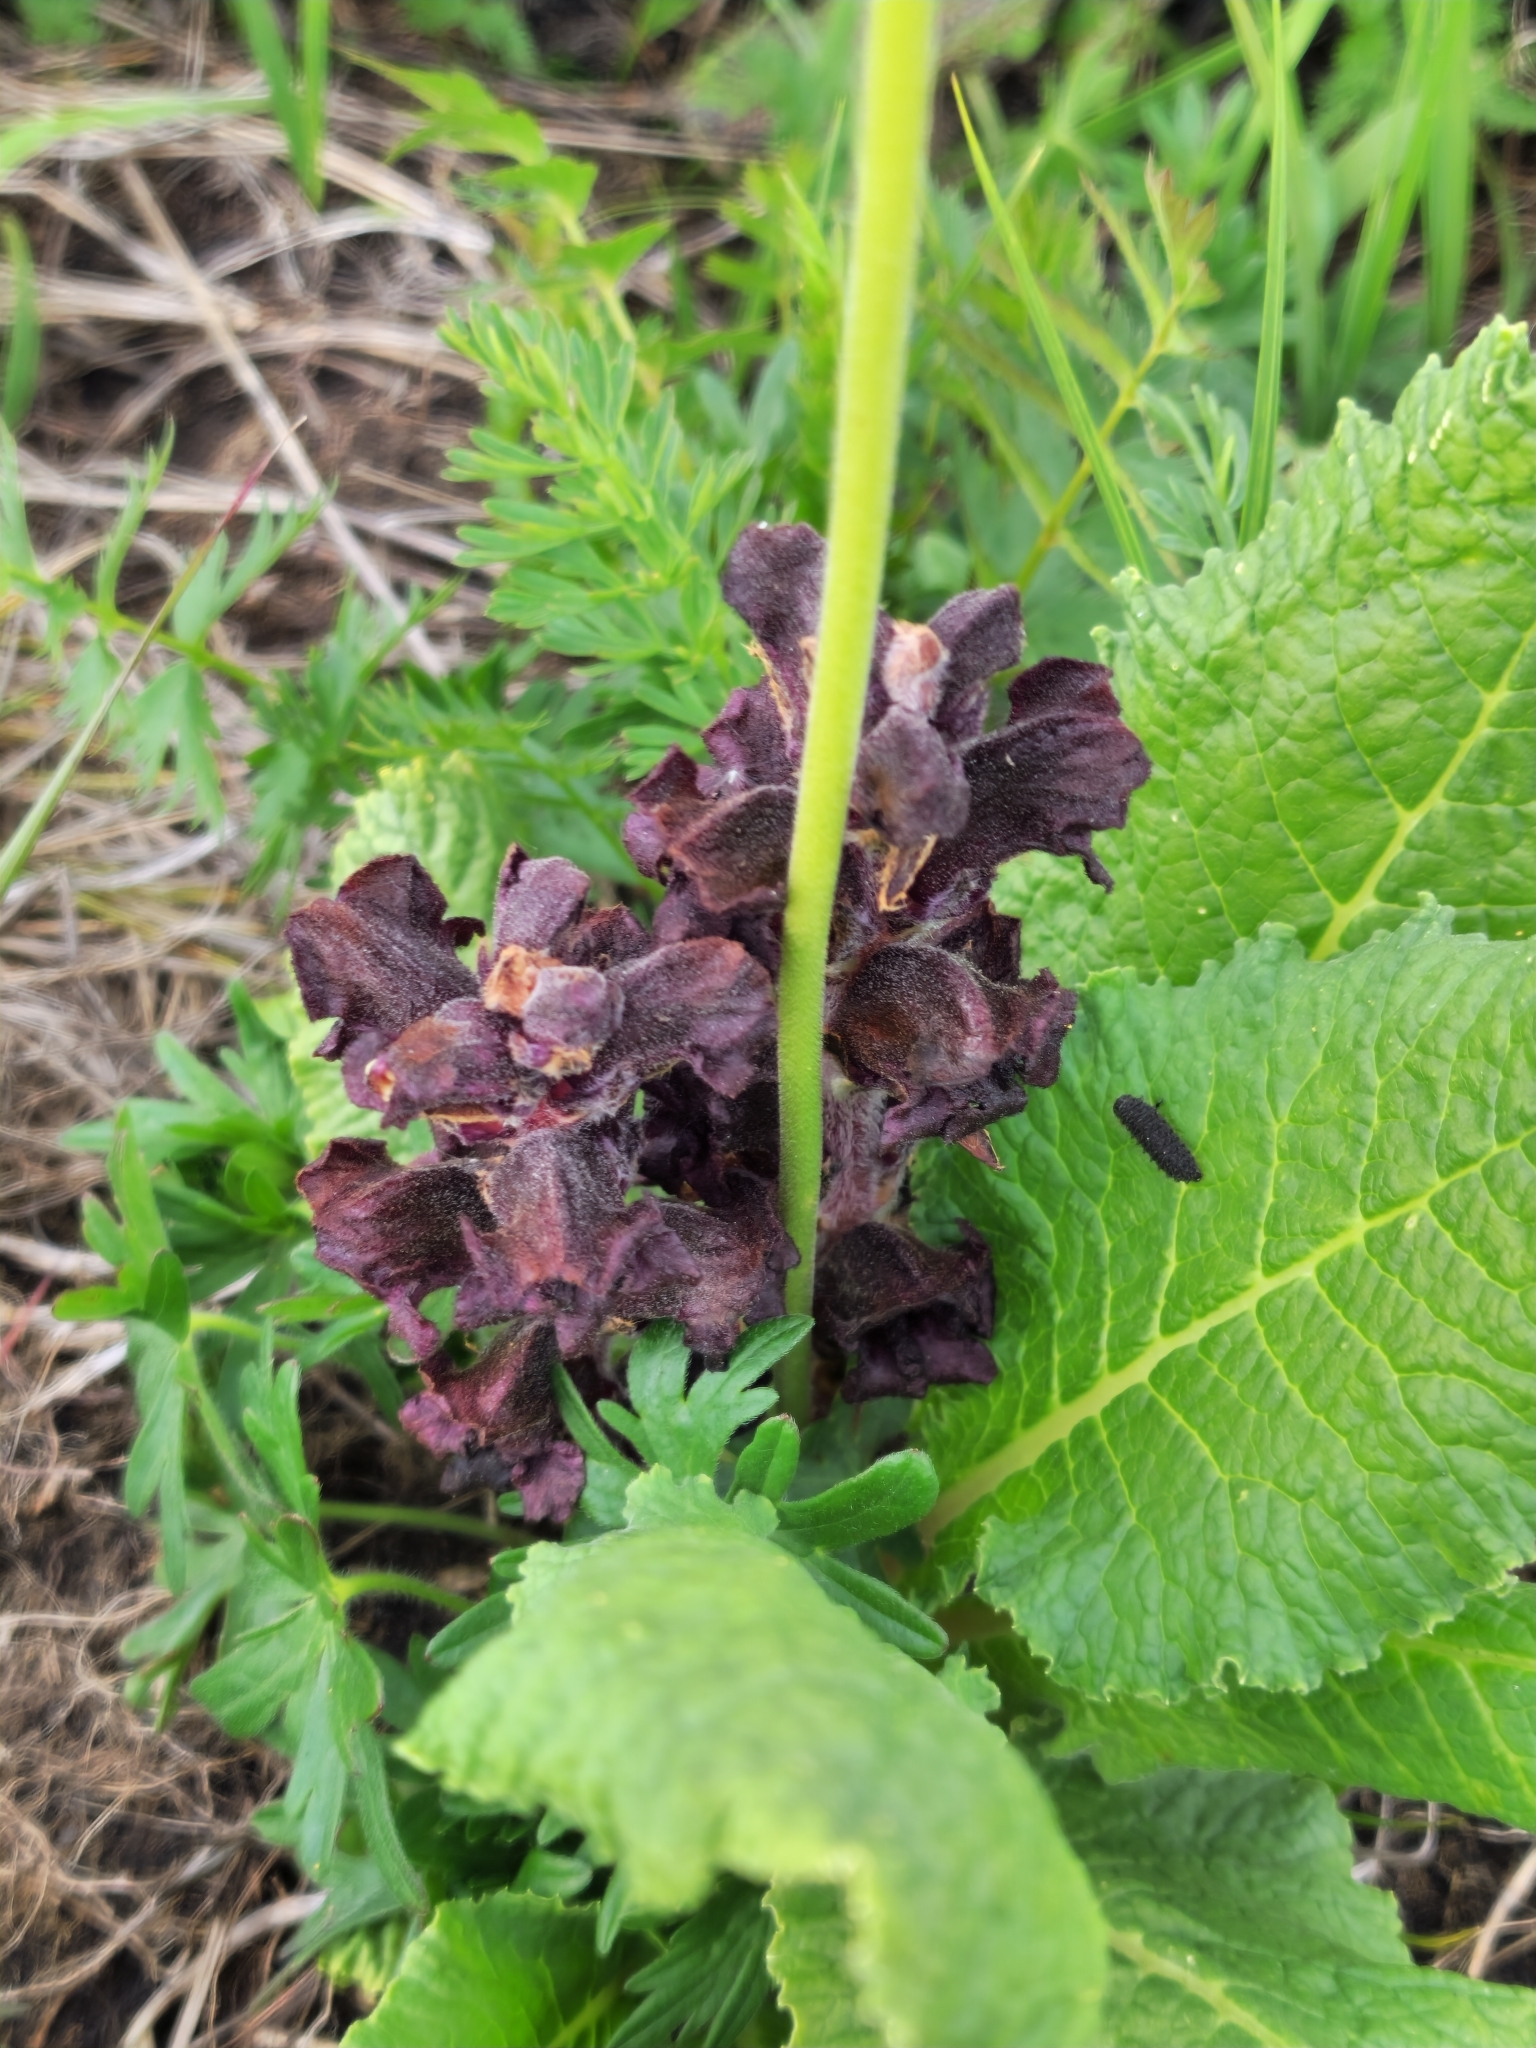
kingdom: Plantae
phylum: Tracheophyta
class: Magnoliopsida
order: Lamiales
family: Orobanchaceae
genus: Orobanche
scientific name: Orobanche gamosepala
